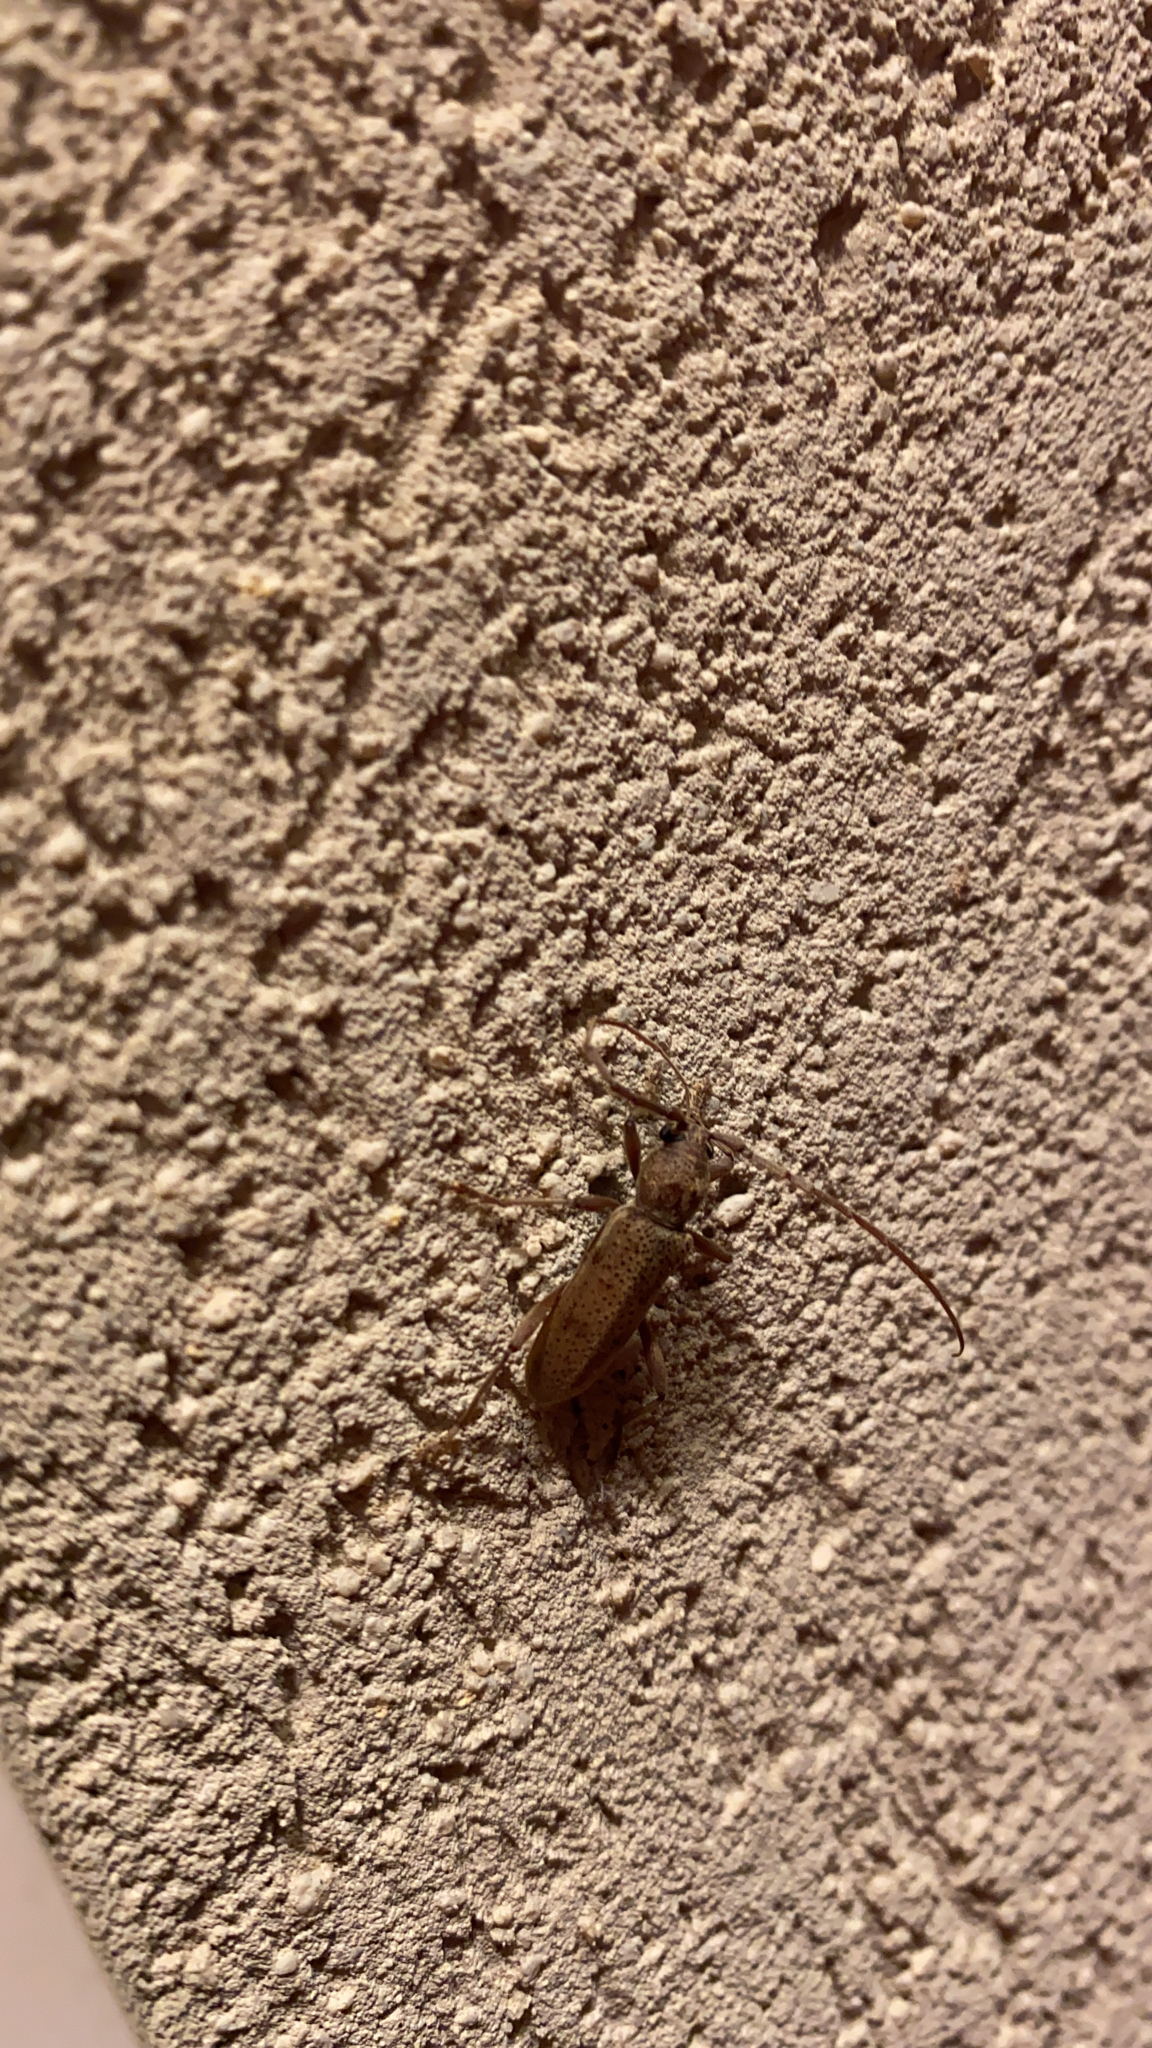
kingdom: Animalia
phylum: Arthropoda
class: Insecta
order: Coleoptera
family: Cerambycidae
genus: Brothylus
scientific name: Brothylus gemmulatus
